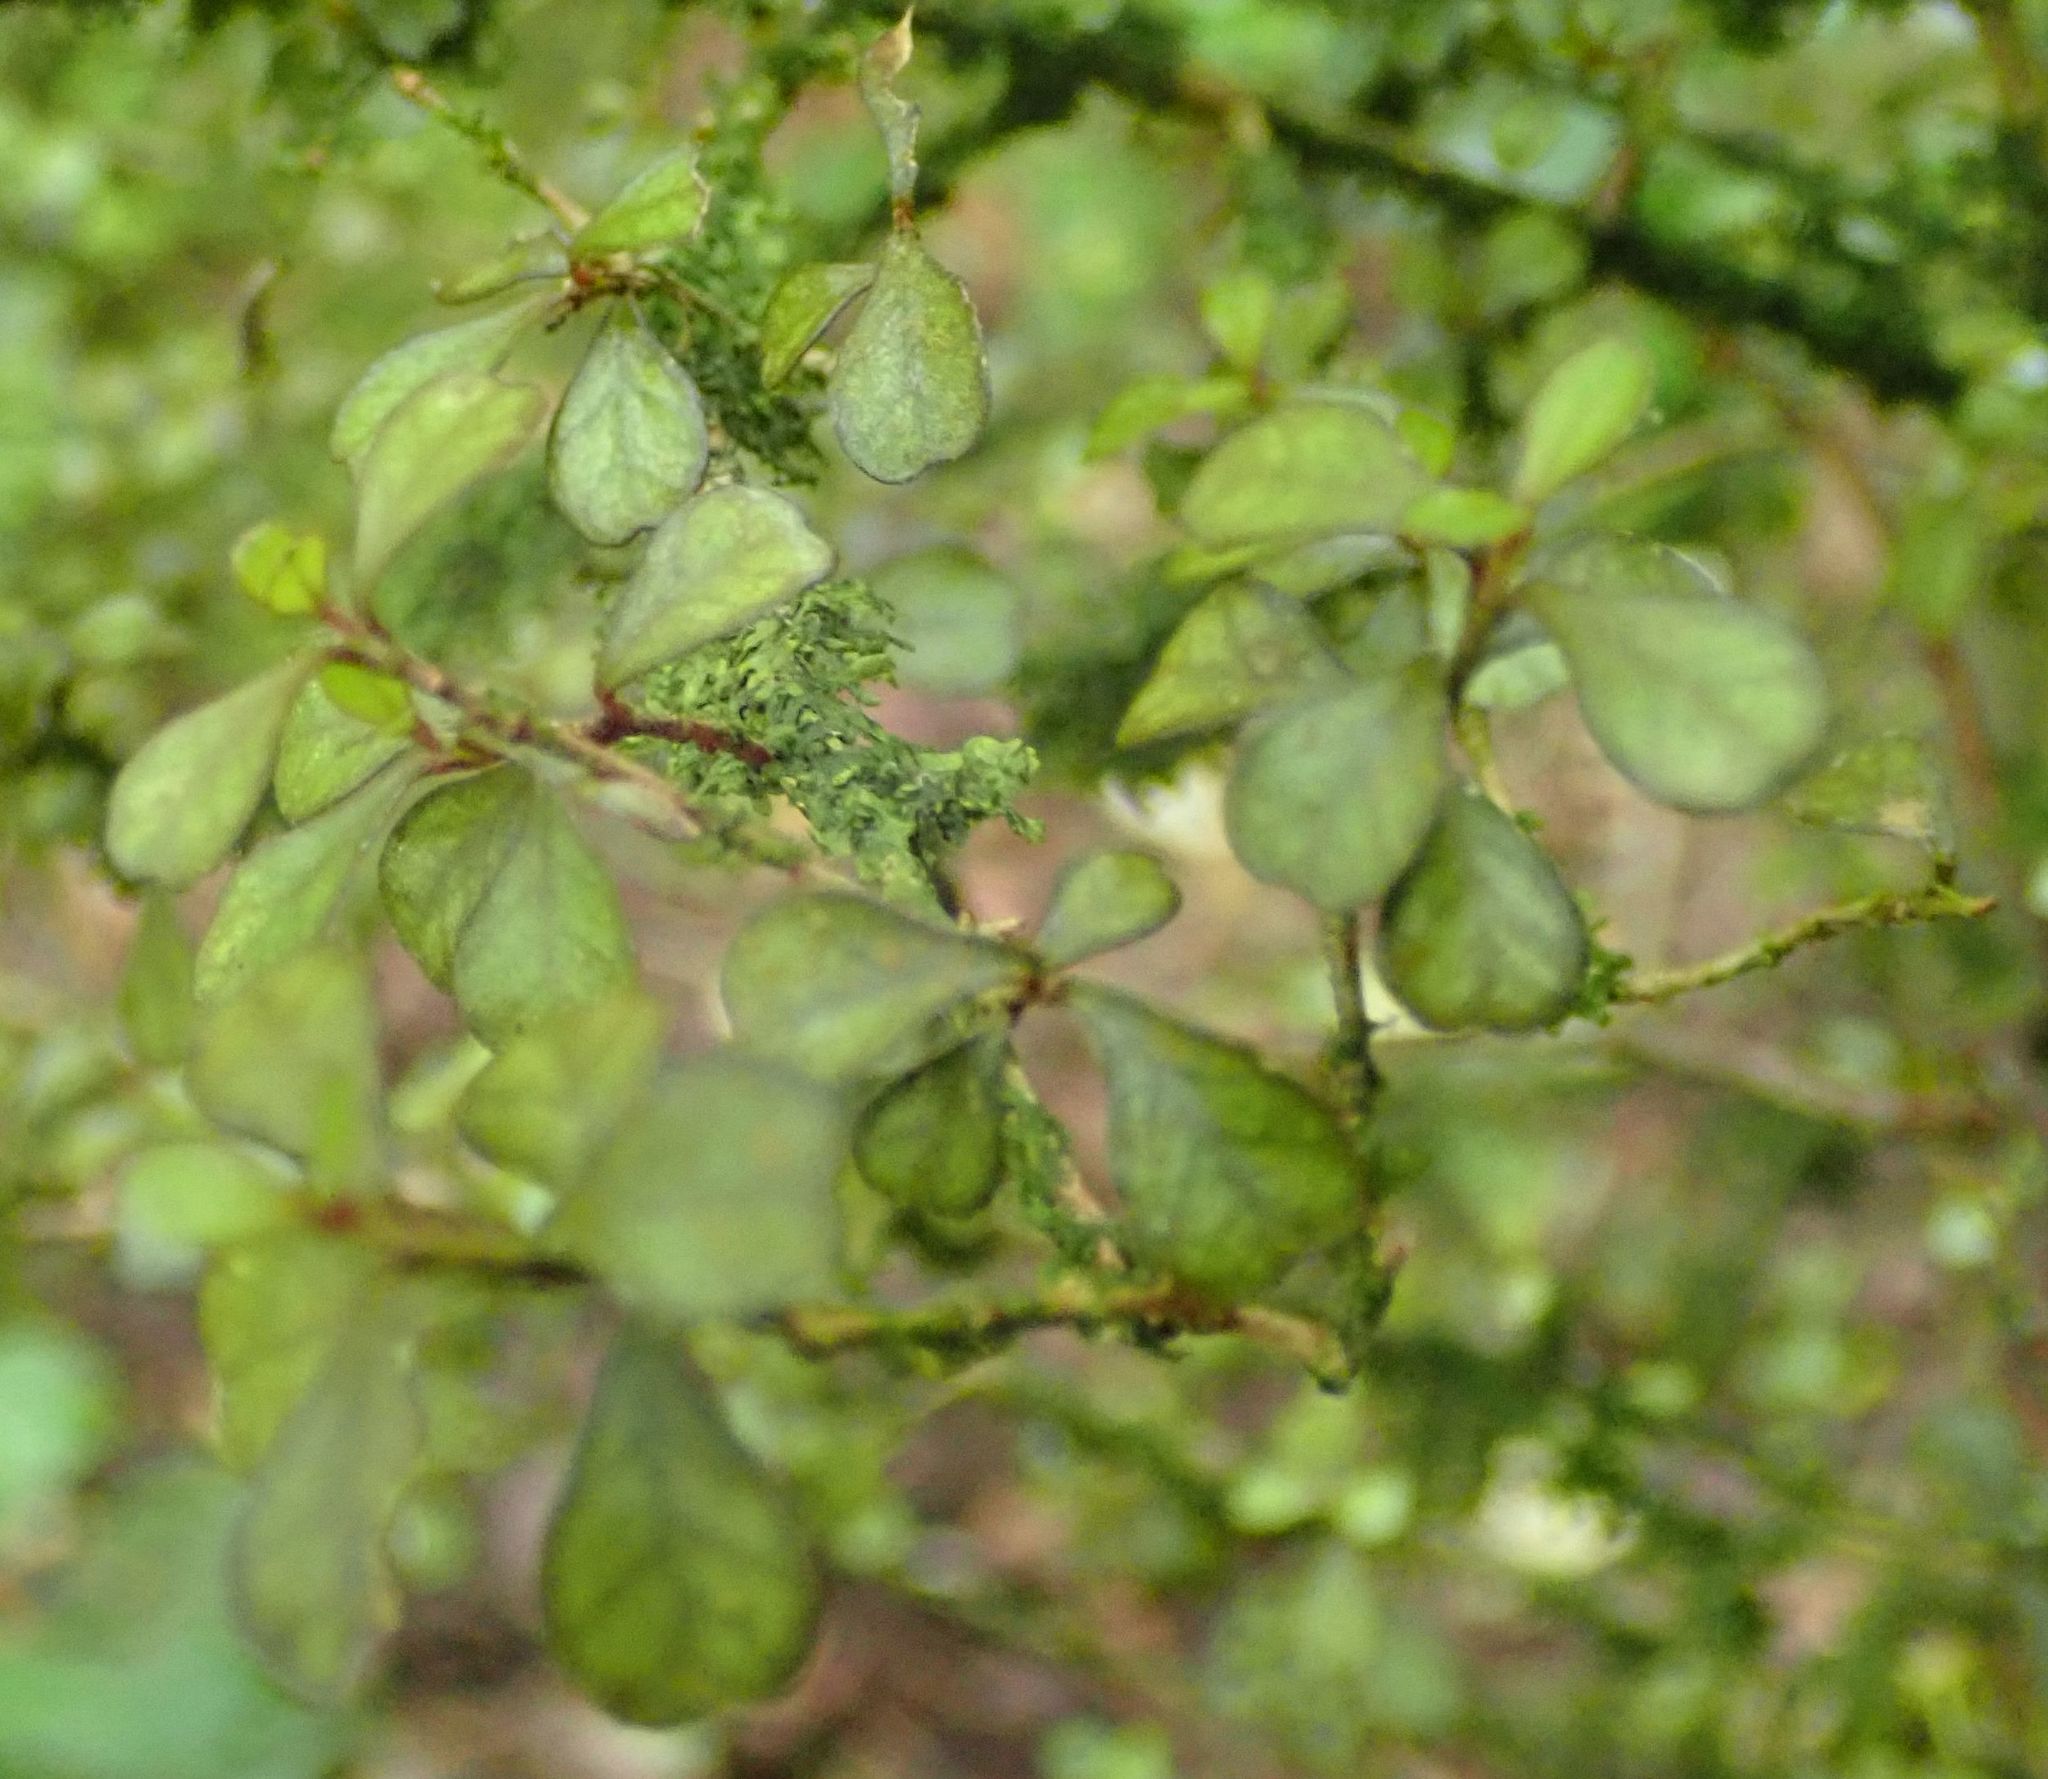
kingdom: Plantae
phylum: Tracheophyta
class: Magnoliopsida
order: Myrtales
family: Myrtaceae
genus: Lophomyrtus
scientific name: Lophomyrtus obcordata
